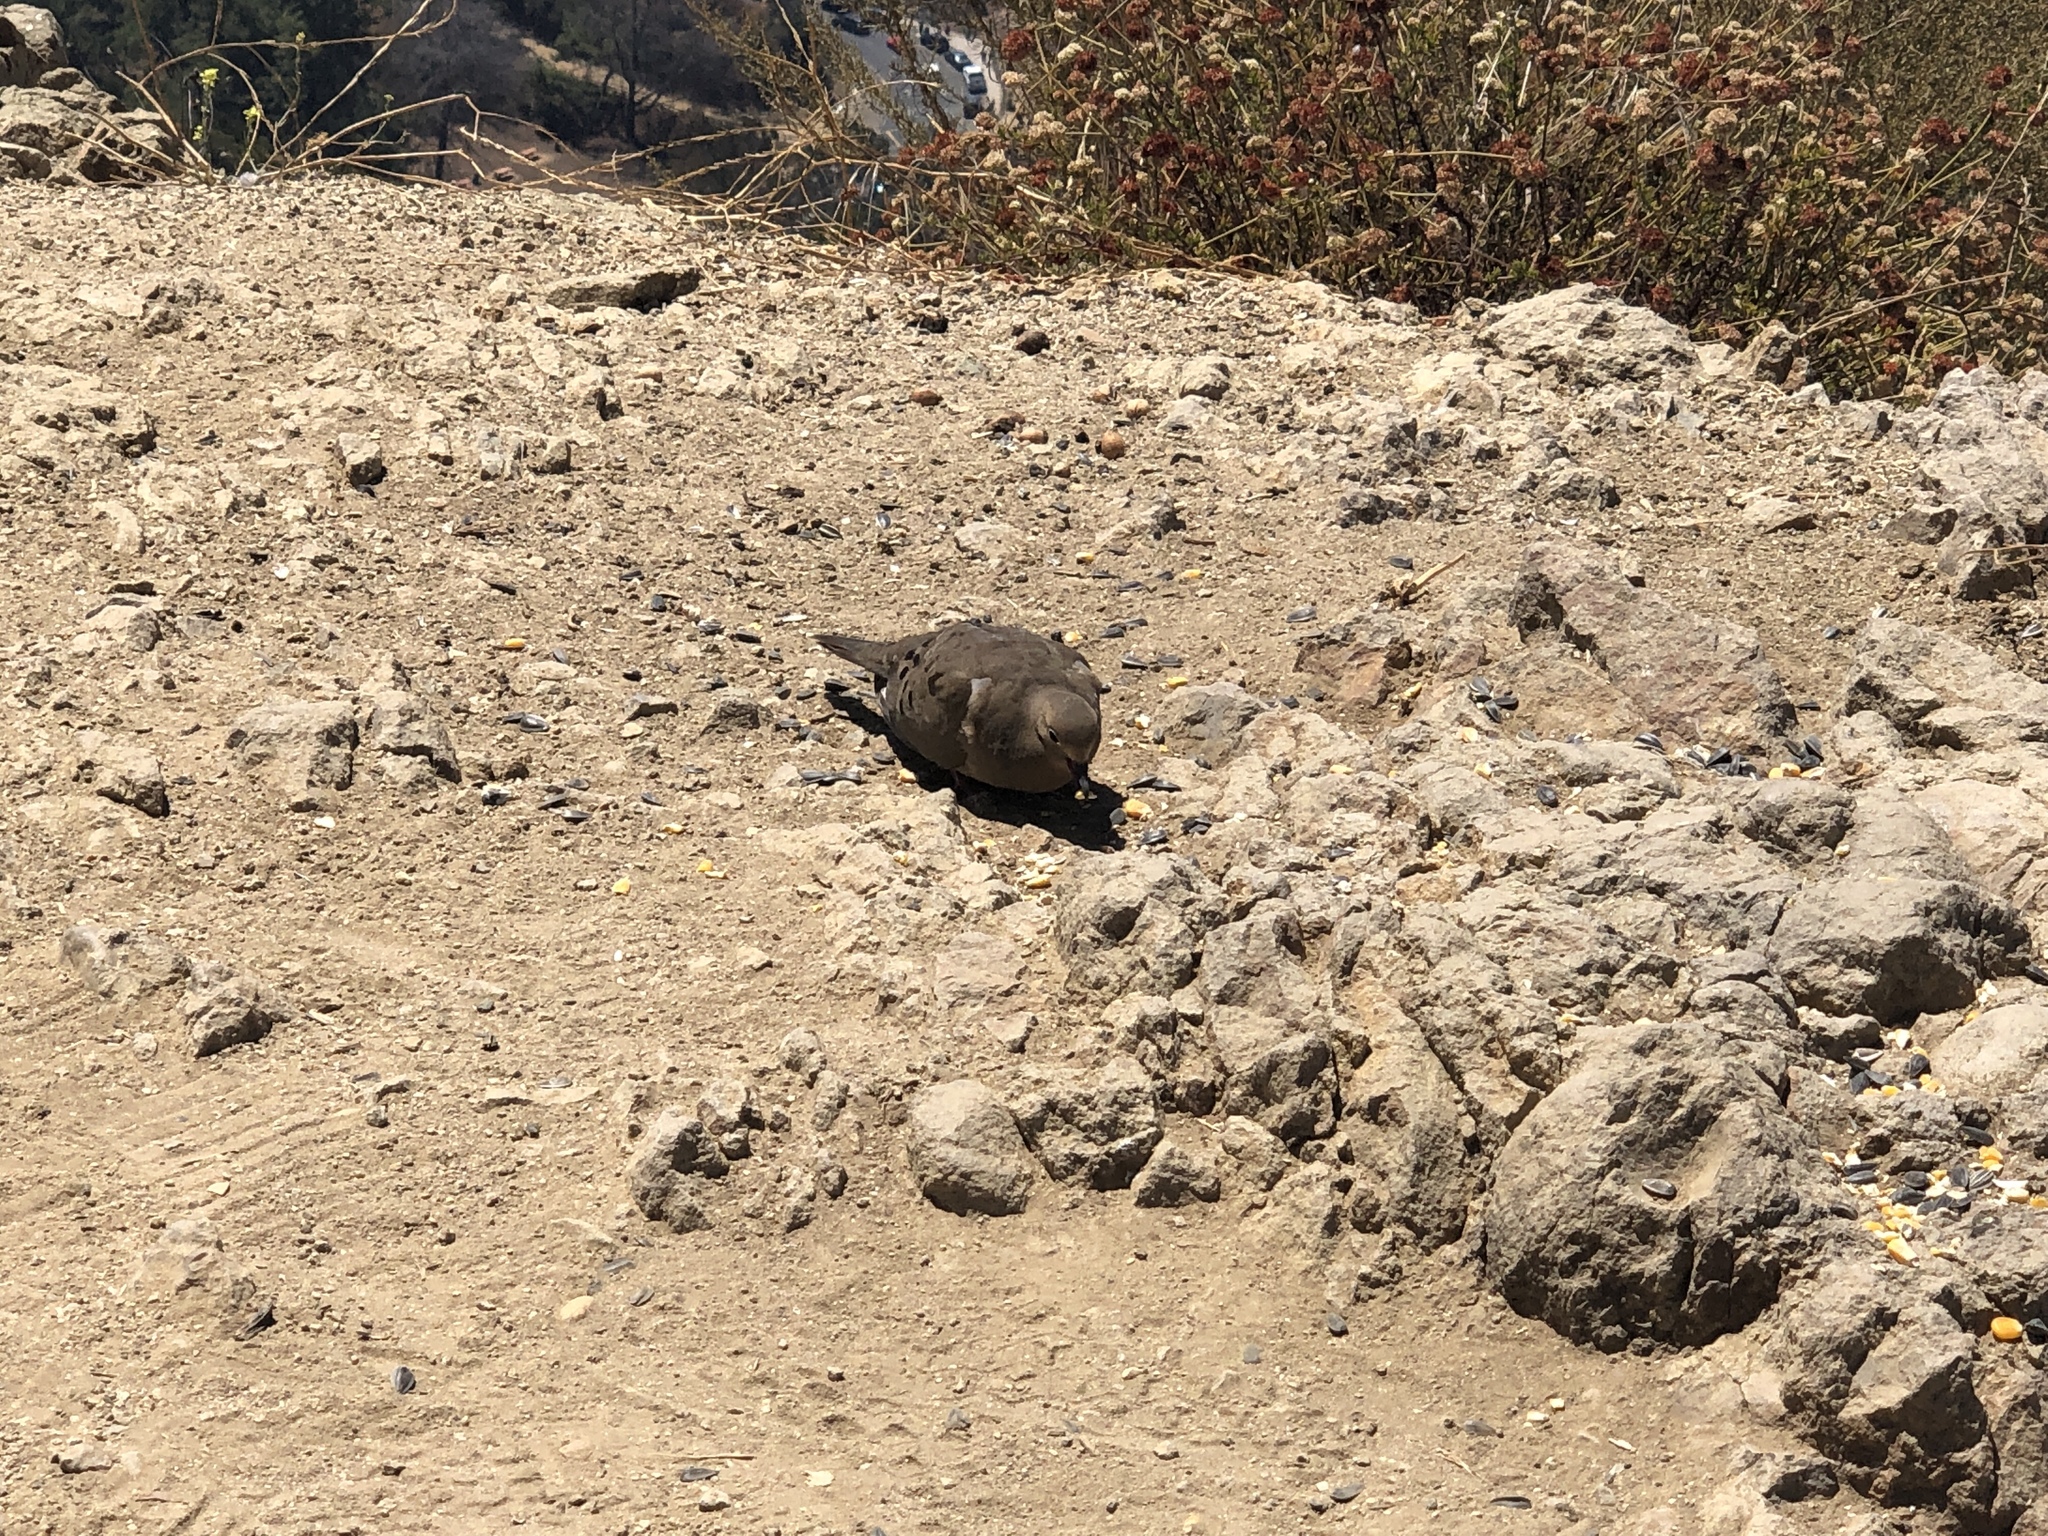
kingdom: Animalia
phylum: Chordata
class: Aves
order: Columbiformes
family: Columbidae
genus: Zenaida
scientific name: Zenaida macroura
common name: Mourning dove
